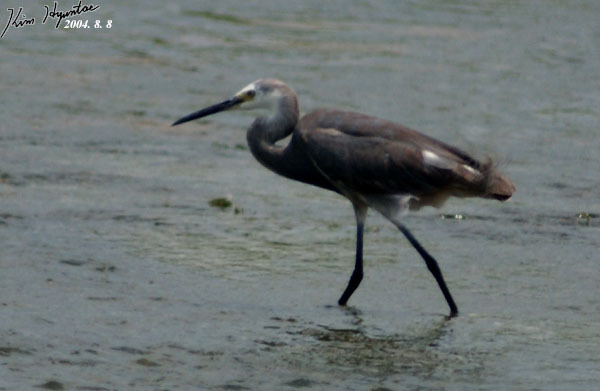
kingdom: Animalia
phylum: Chordata
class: Aves
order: Pelecaniformes
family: Ardeidae
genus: Egretta
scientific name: Egretta garzetta
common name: Little egret
